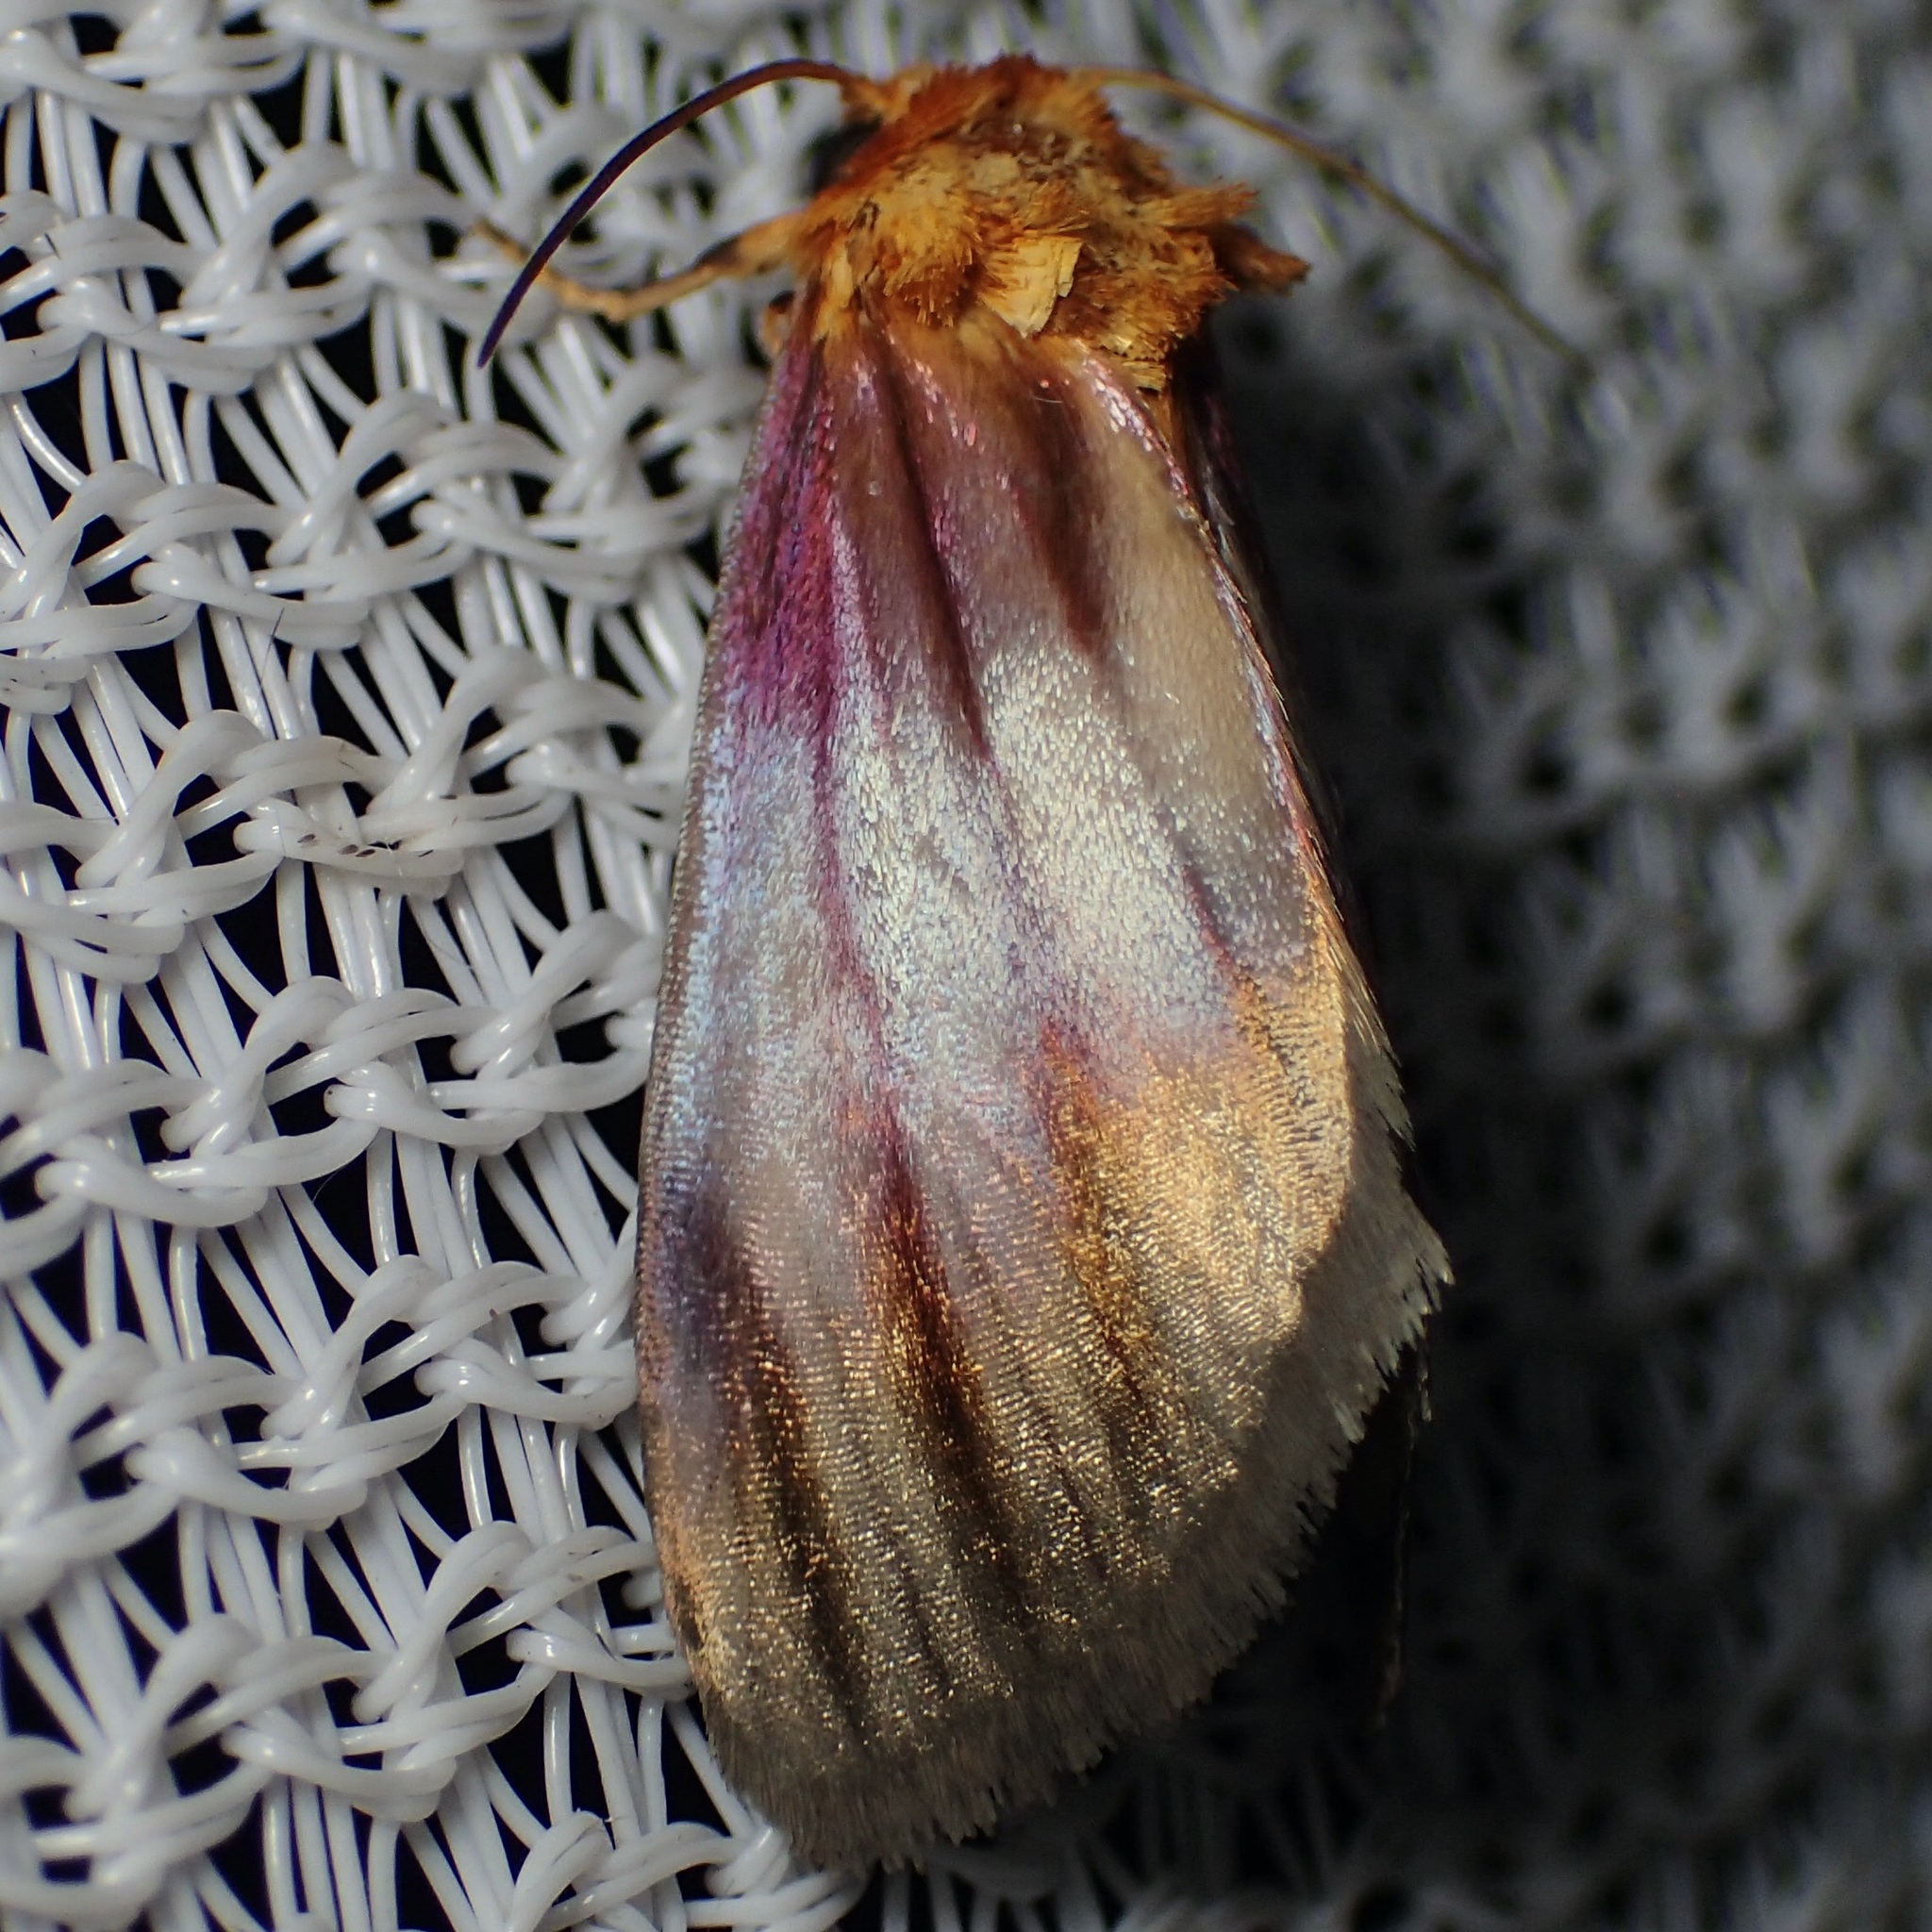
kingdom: Animalia
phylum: Arthropoda
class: Insecta
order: Lepidoptera
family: Noctuidae
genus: Antaplaga
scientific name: Antaplaga plesioglauca
